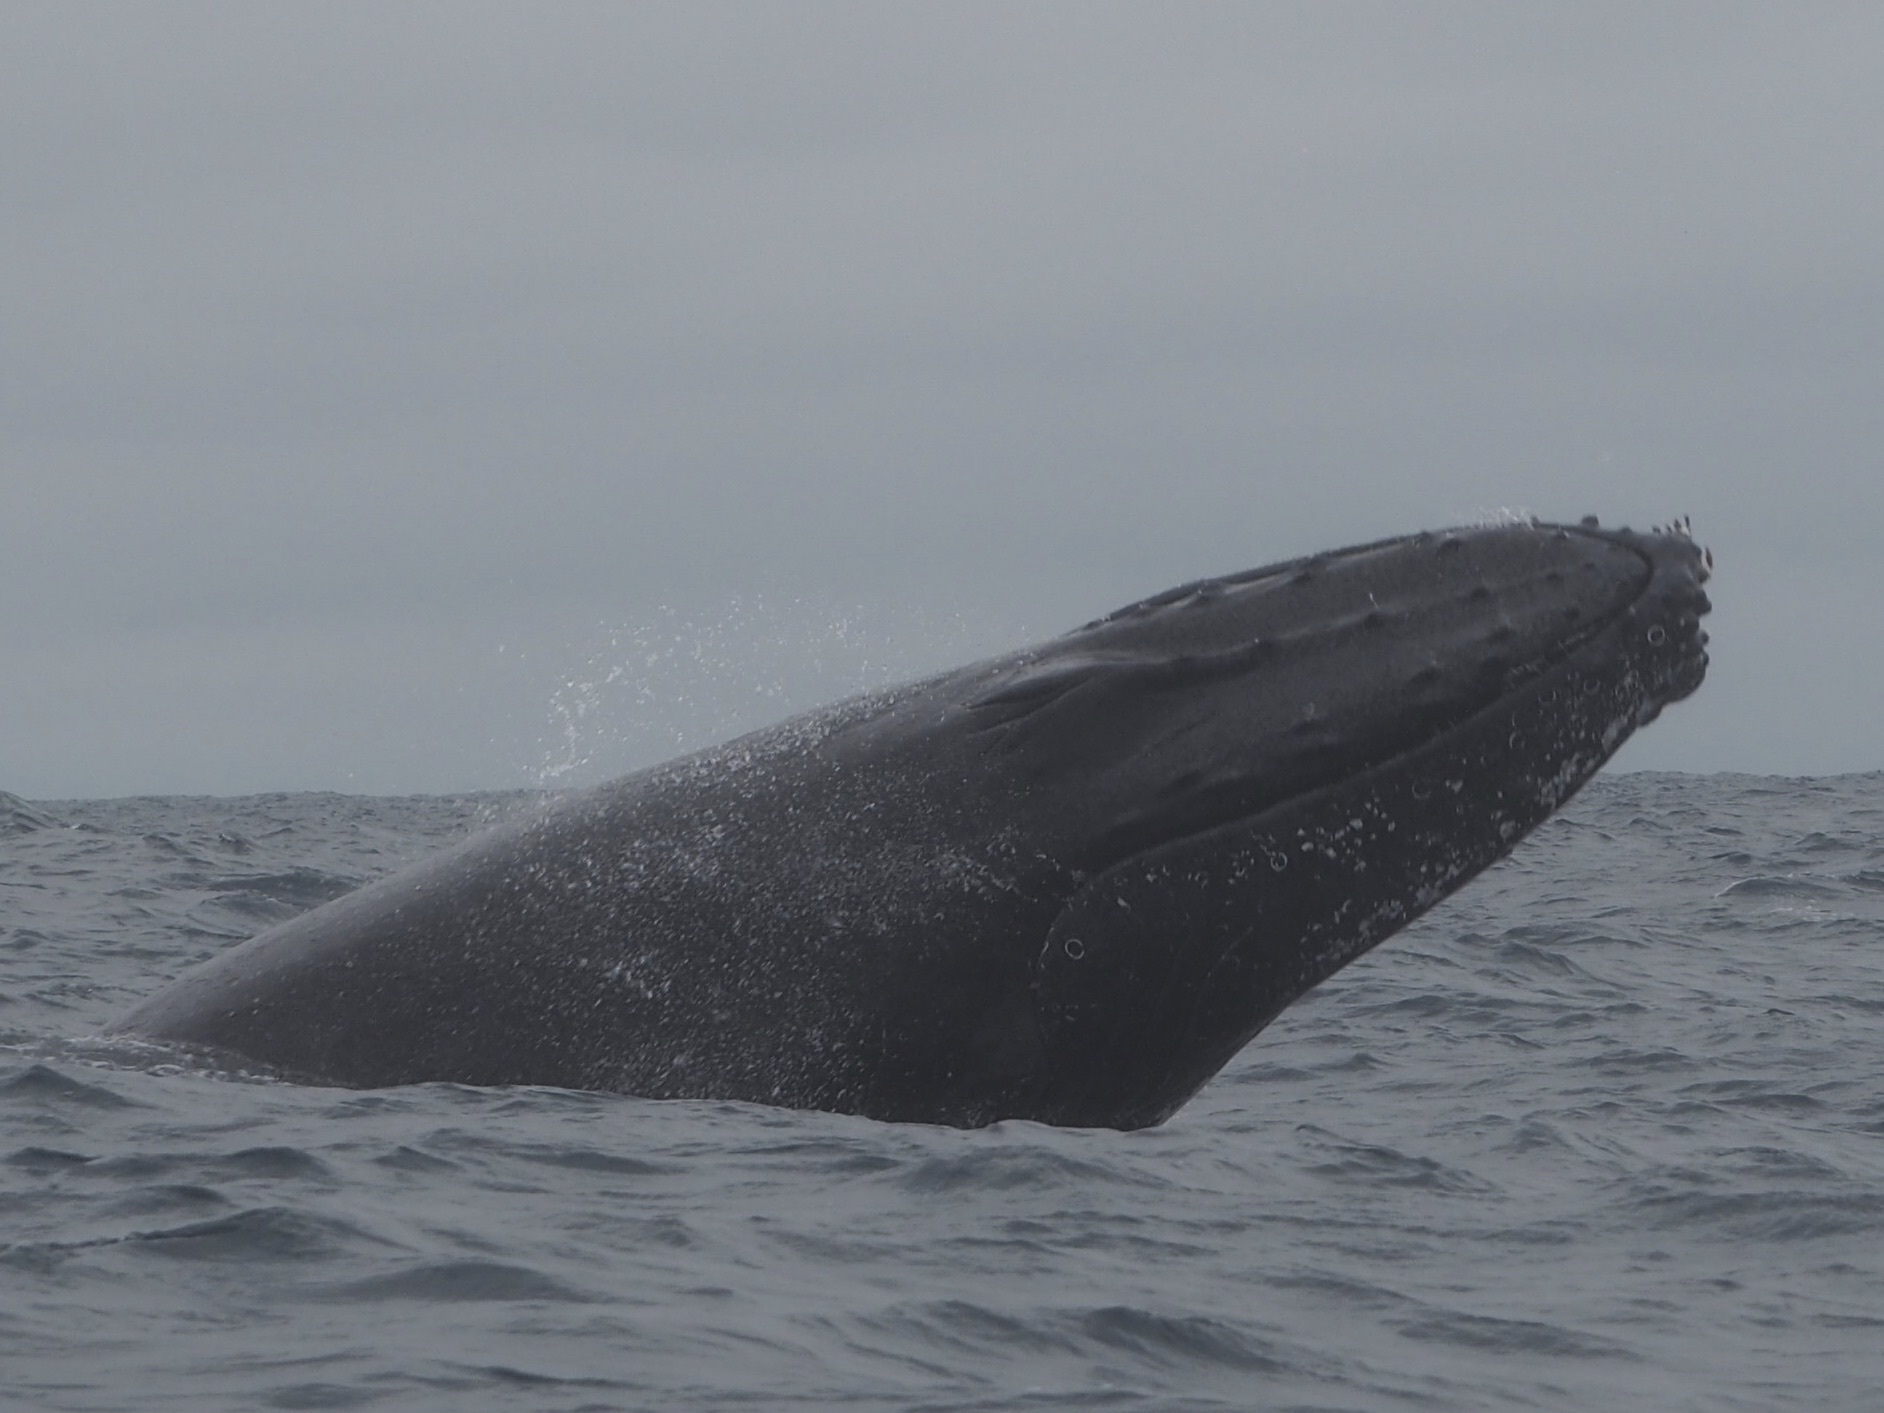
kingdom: Animalia
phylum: Chordata
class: Mammalia
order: Cetacea
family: Balaenopteridae
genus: Megaptera
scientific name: Megaptera novaeangliae
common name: Humpback whale
